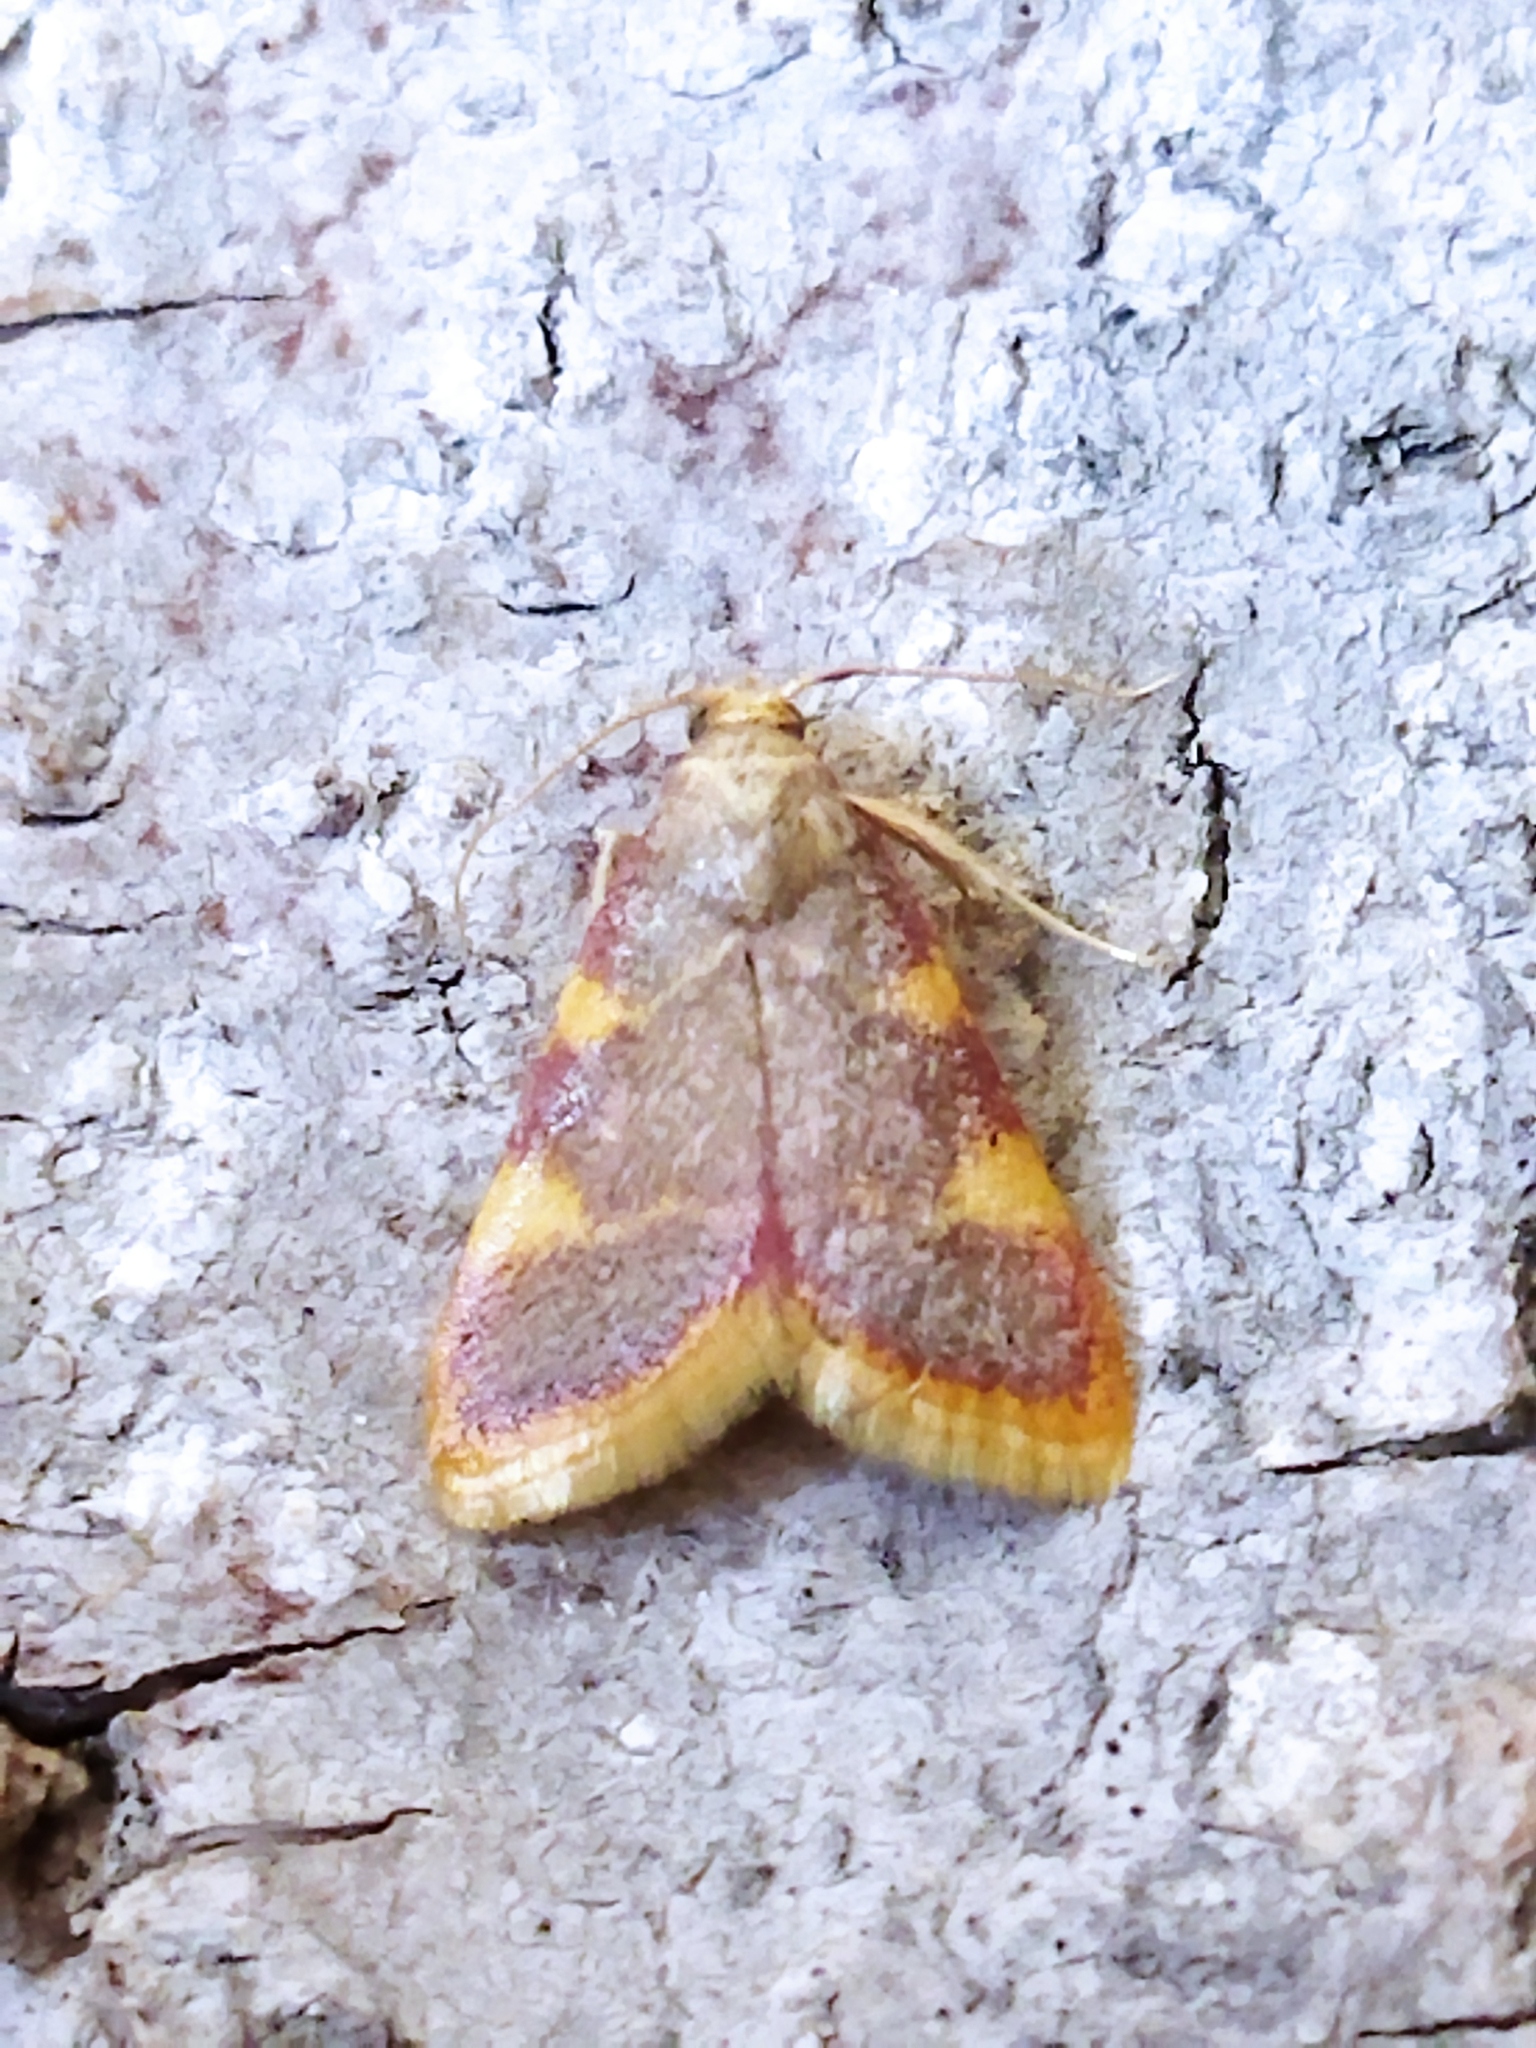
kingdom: Animalia
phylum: Arthropoda
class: Insecta
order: Lepidoptera
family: Pyralidae
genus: Hypsopygia
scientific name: Hypsopygia costalis
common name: Gold triangle
